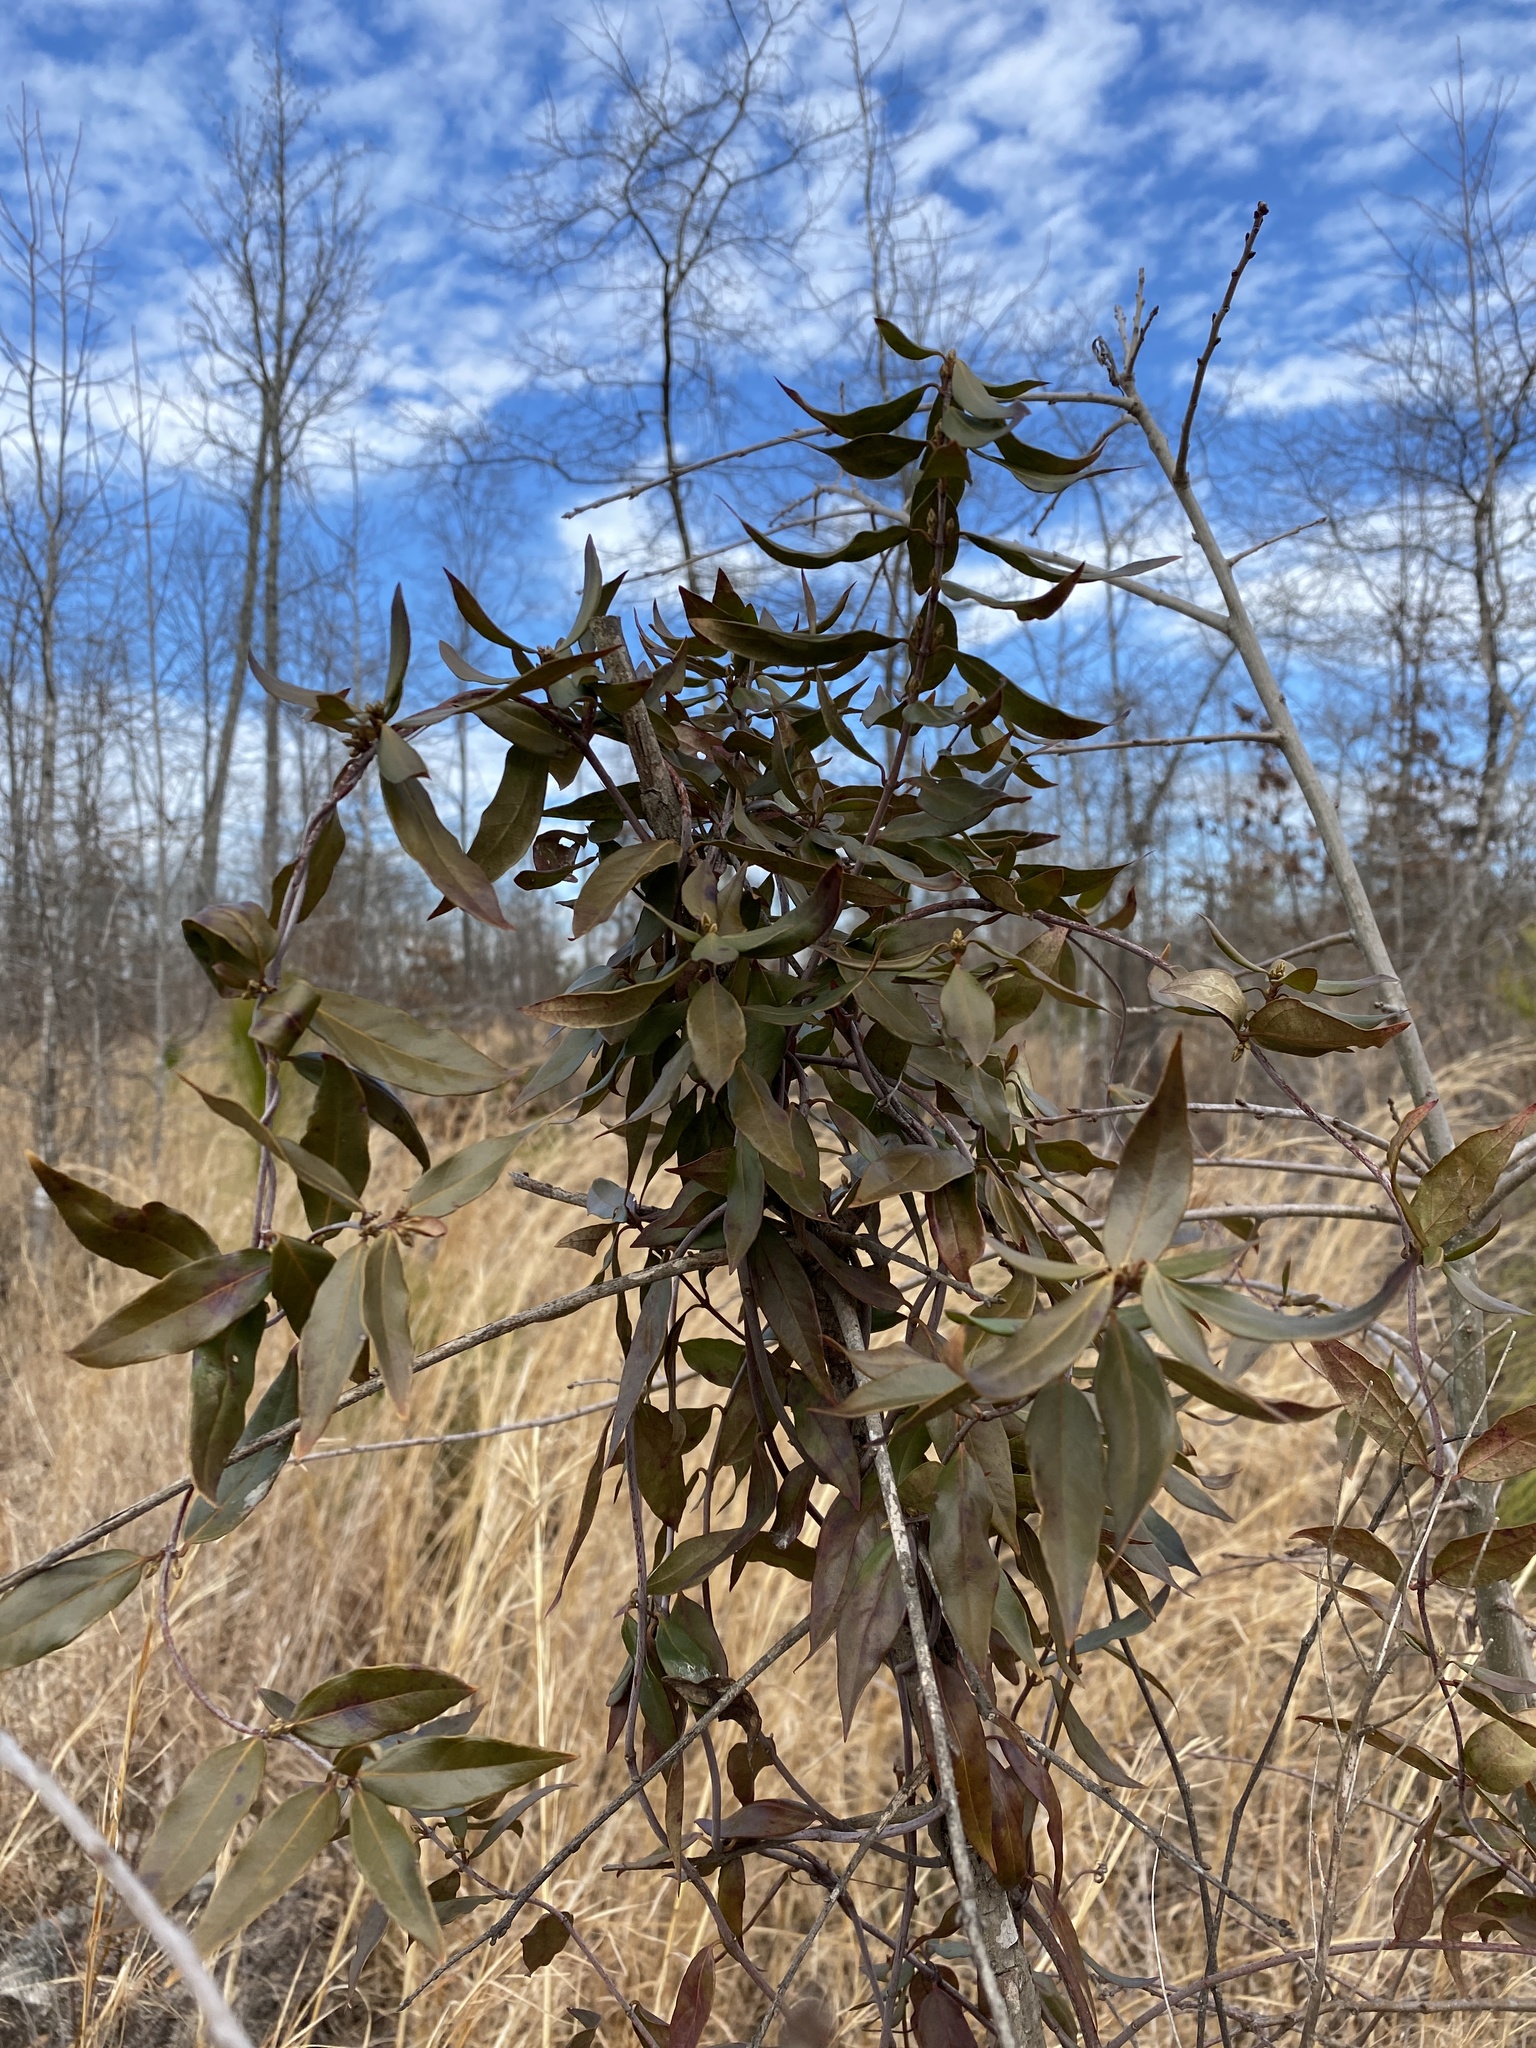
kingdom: Plantae
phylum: Tracheophyta
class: Magnoliopsida
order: Gentianales
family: Gelsemiaceae
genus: Gelsemium
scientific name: Gelsemium sempervirens
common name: Carolina-jasmine
